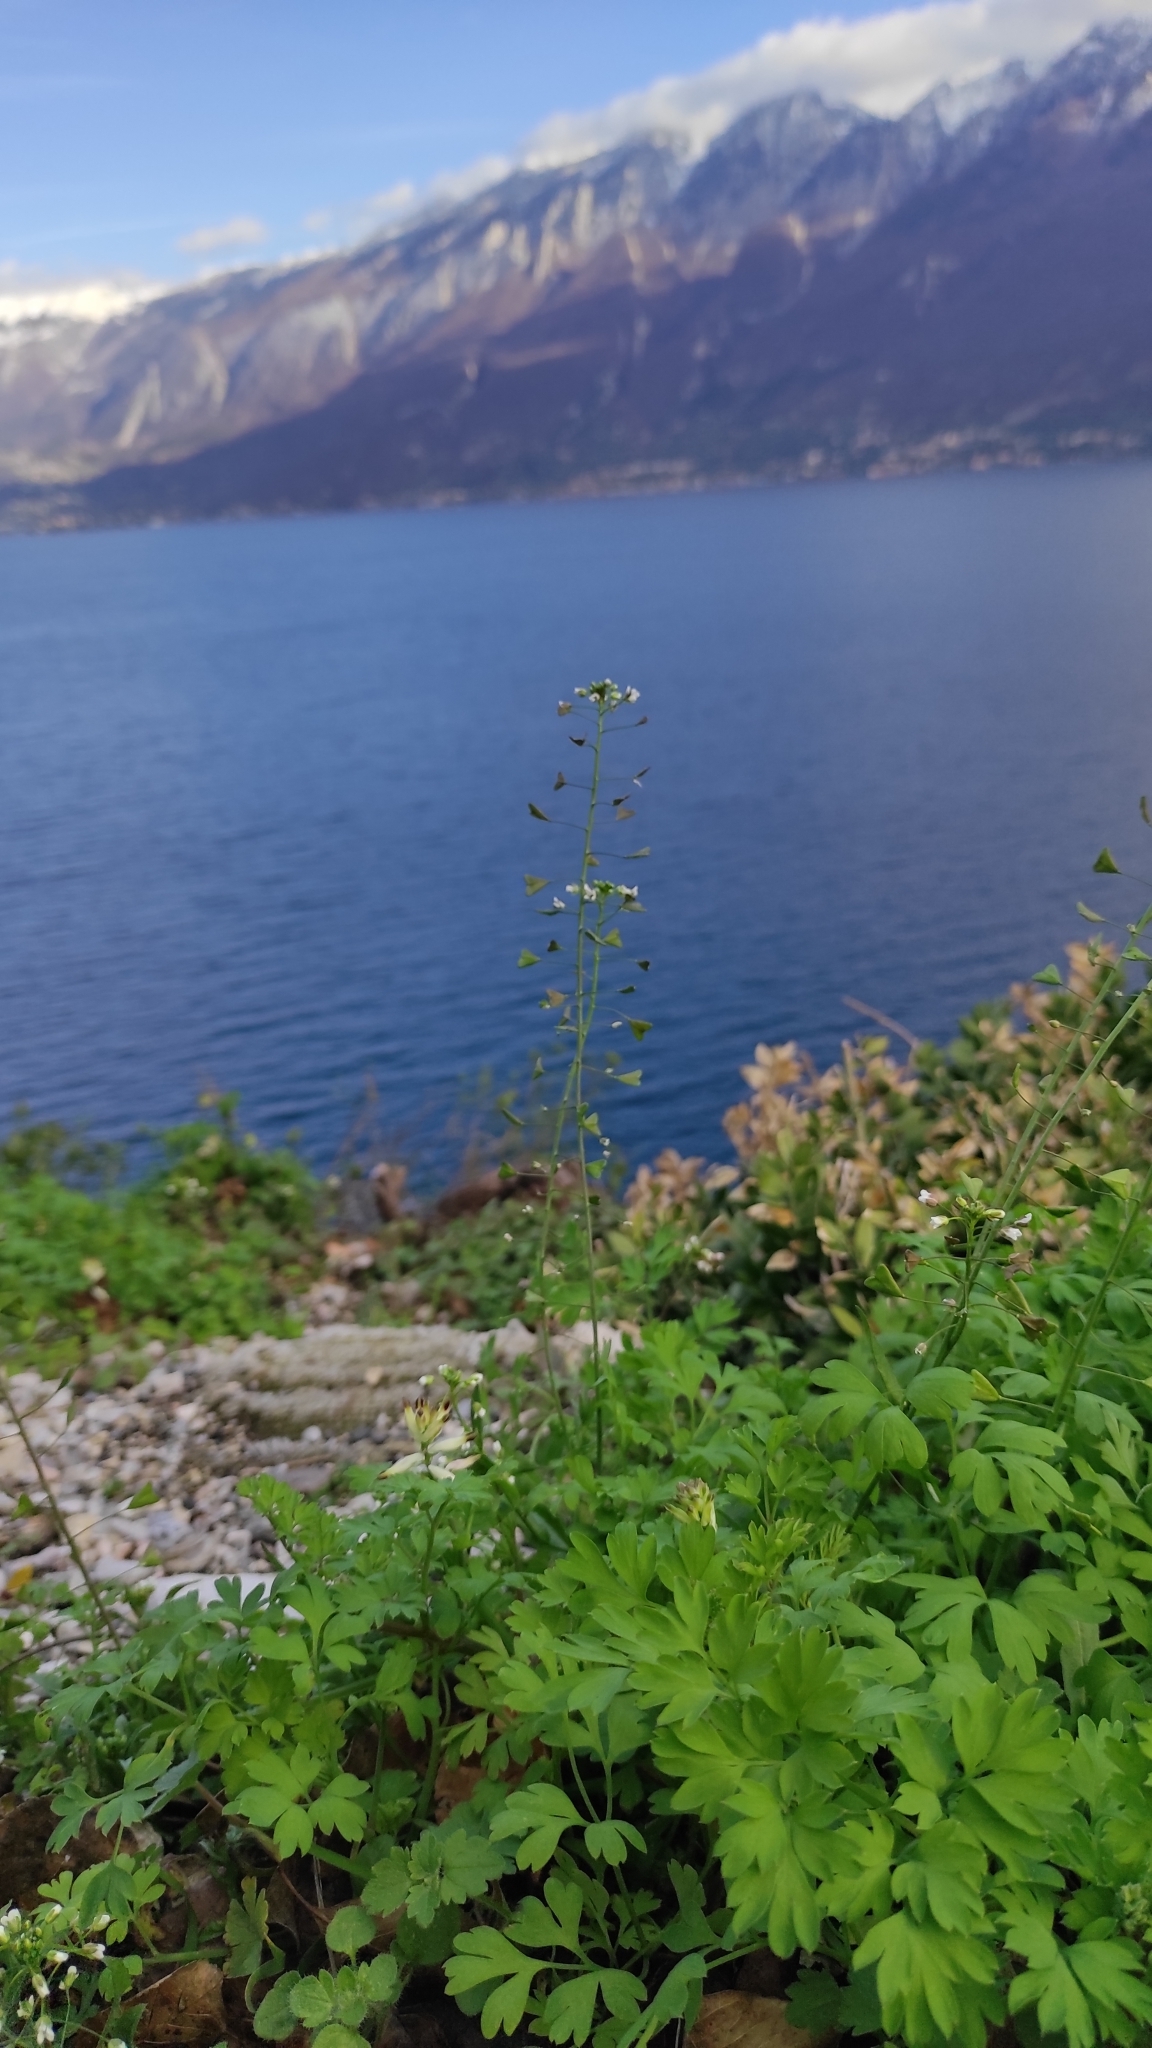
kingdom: Plantae
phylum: Tracheophyta
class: Magnoliopsida
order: Brassicales
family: Brassicaceae
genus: Capsella
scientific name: Capsella bursa-pastoris
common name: Shepherd's purse
